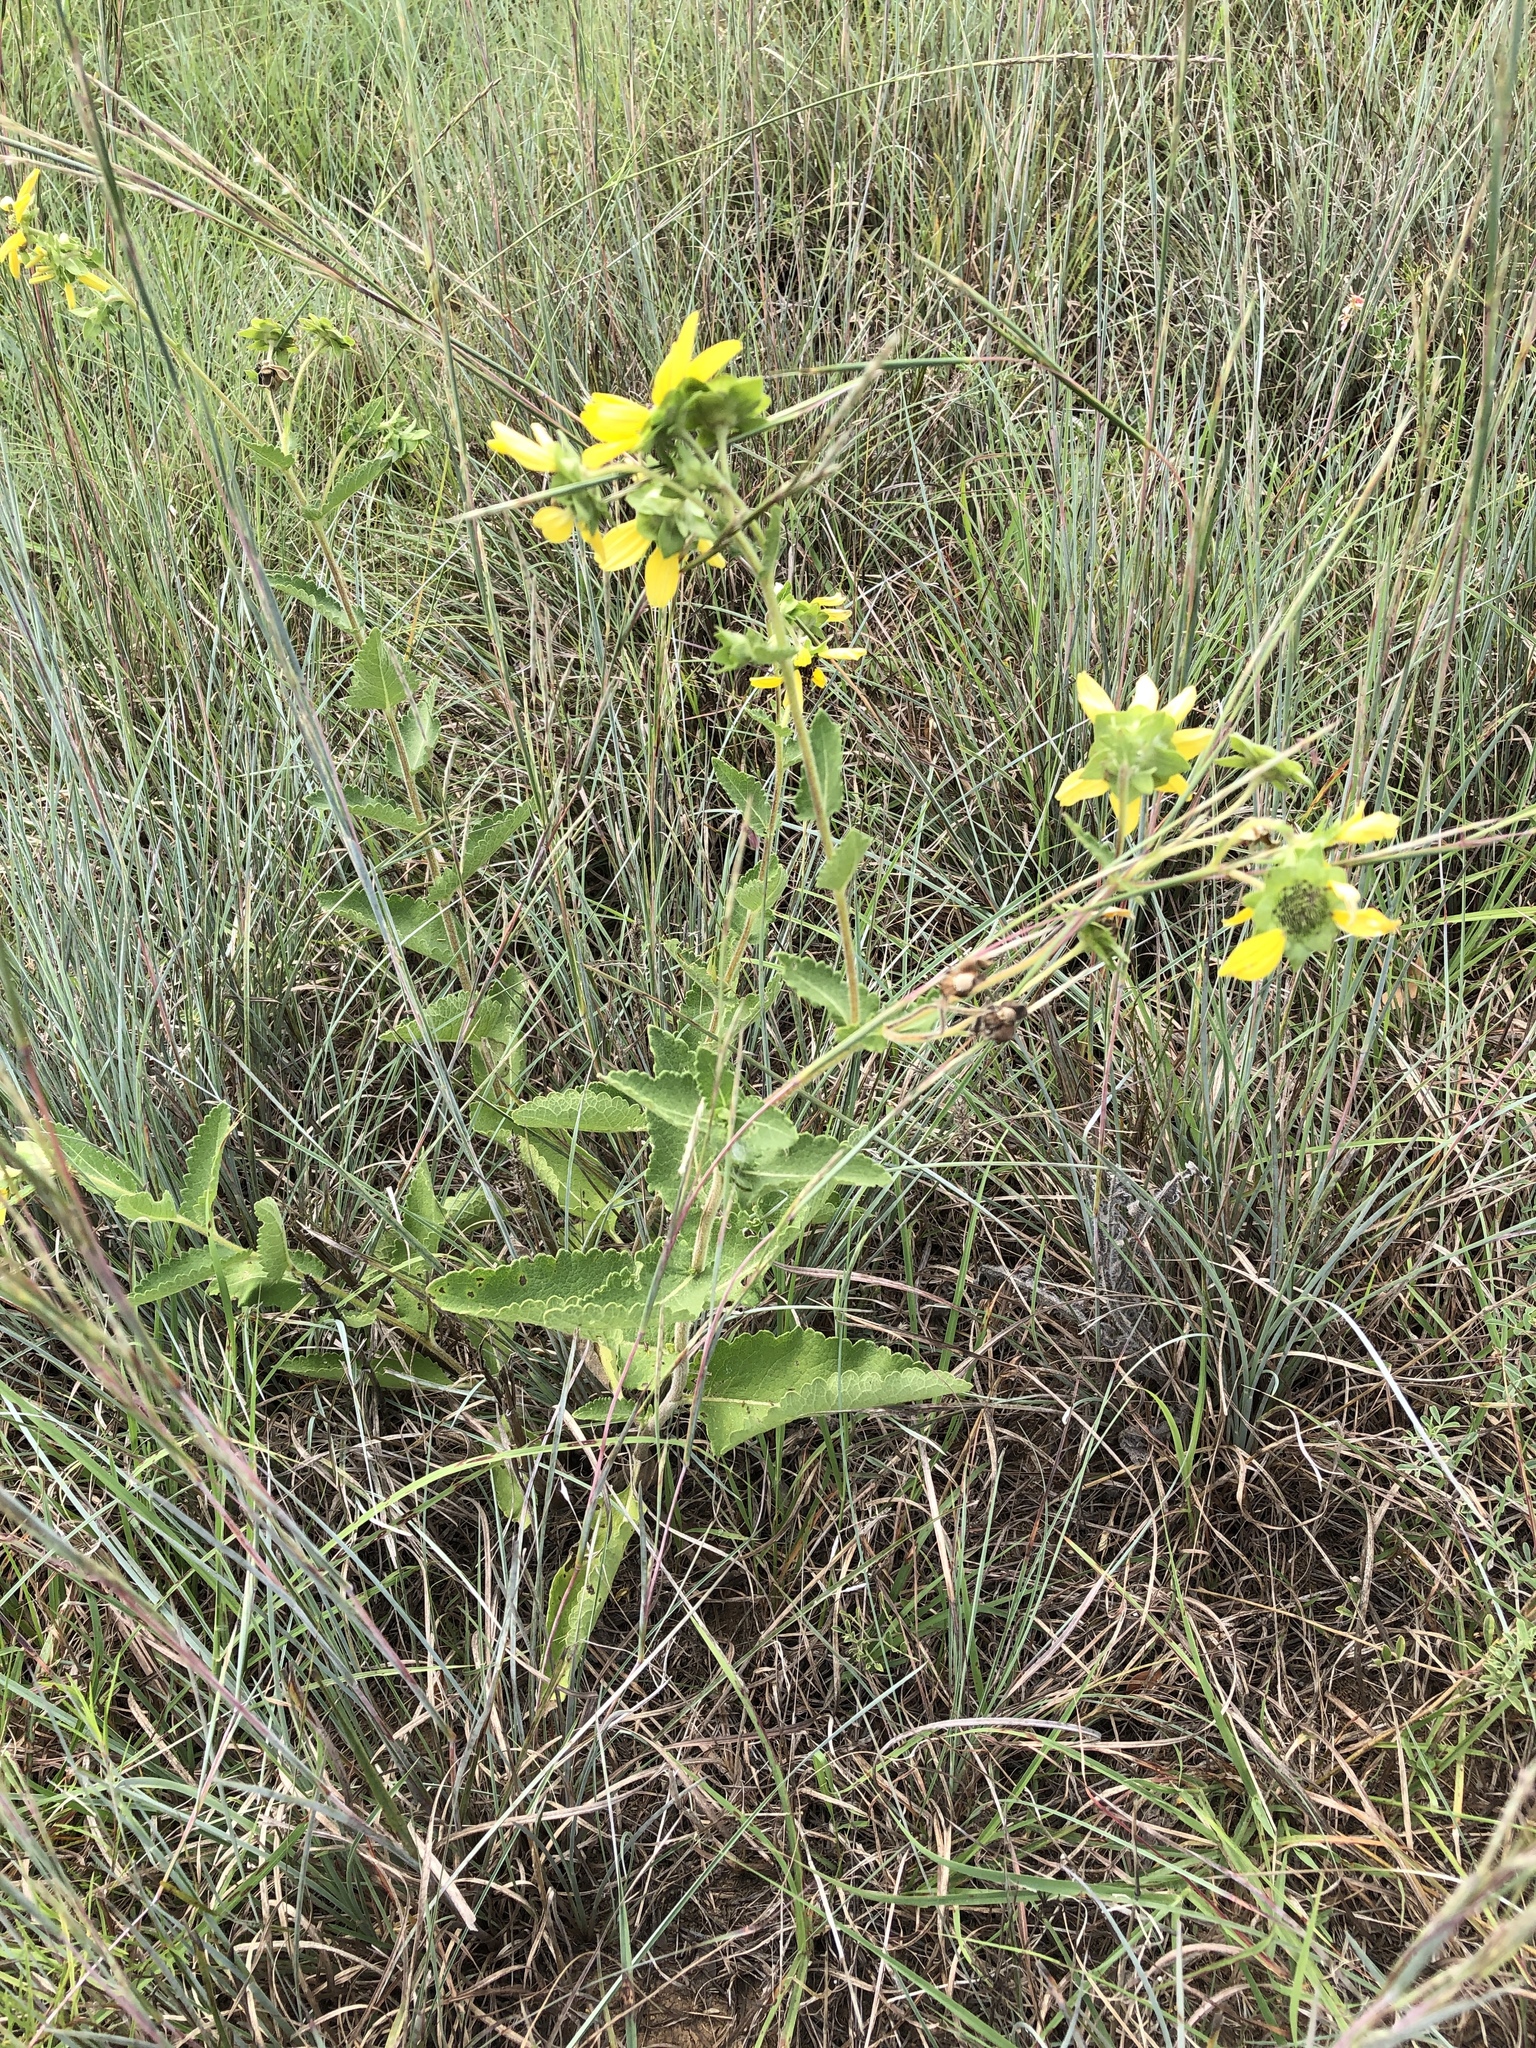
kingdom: Plantae
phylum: Tracheophyta
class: Magnoliopsida
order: Asterales
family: Asteraceae
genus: Berlandiera
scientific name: Berlandiera texana
